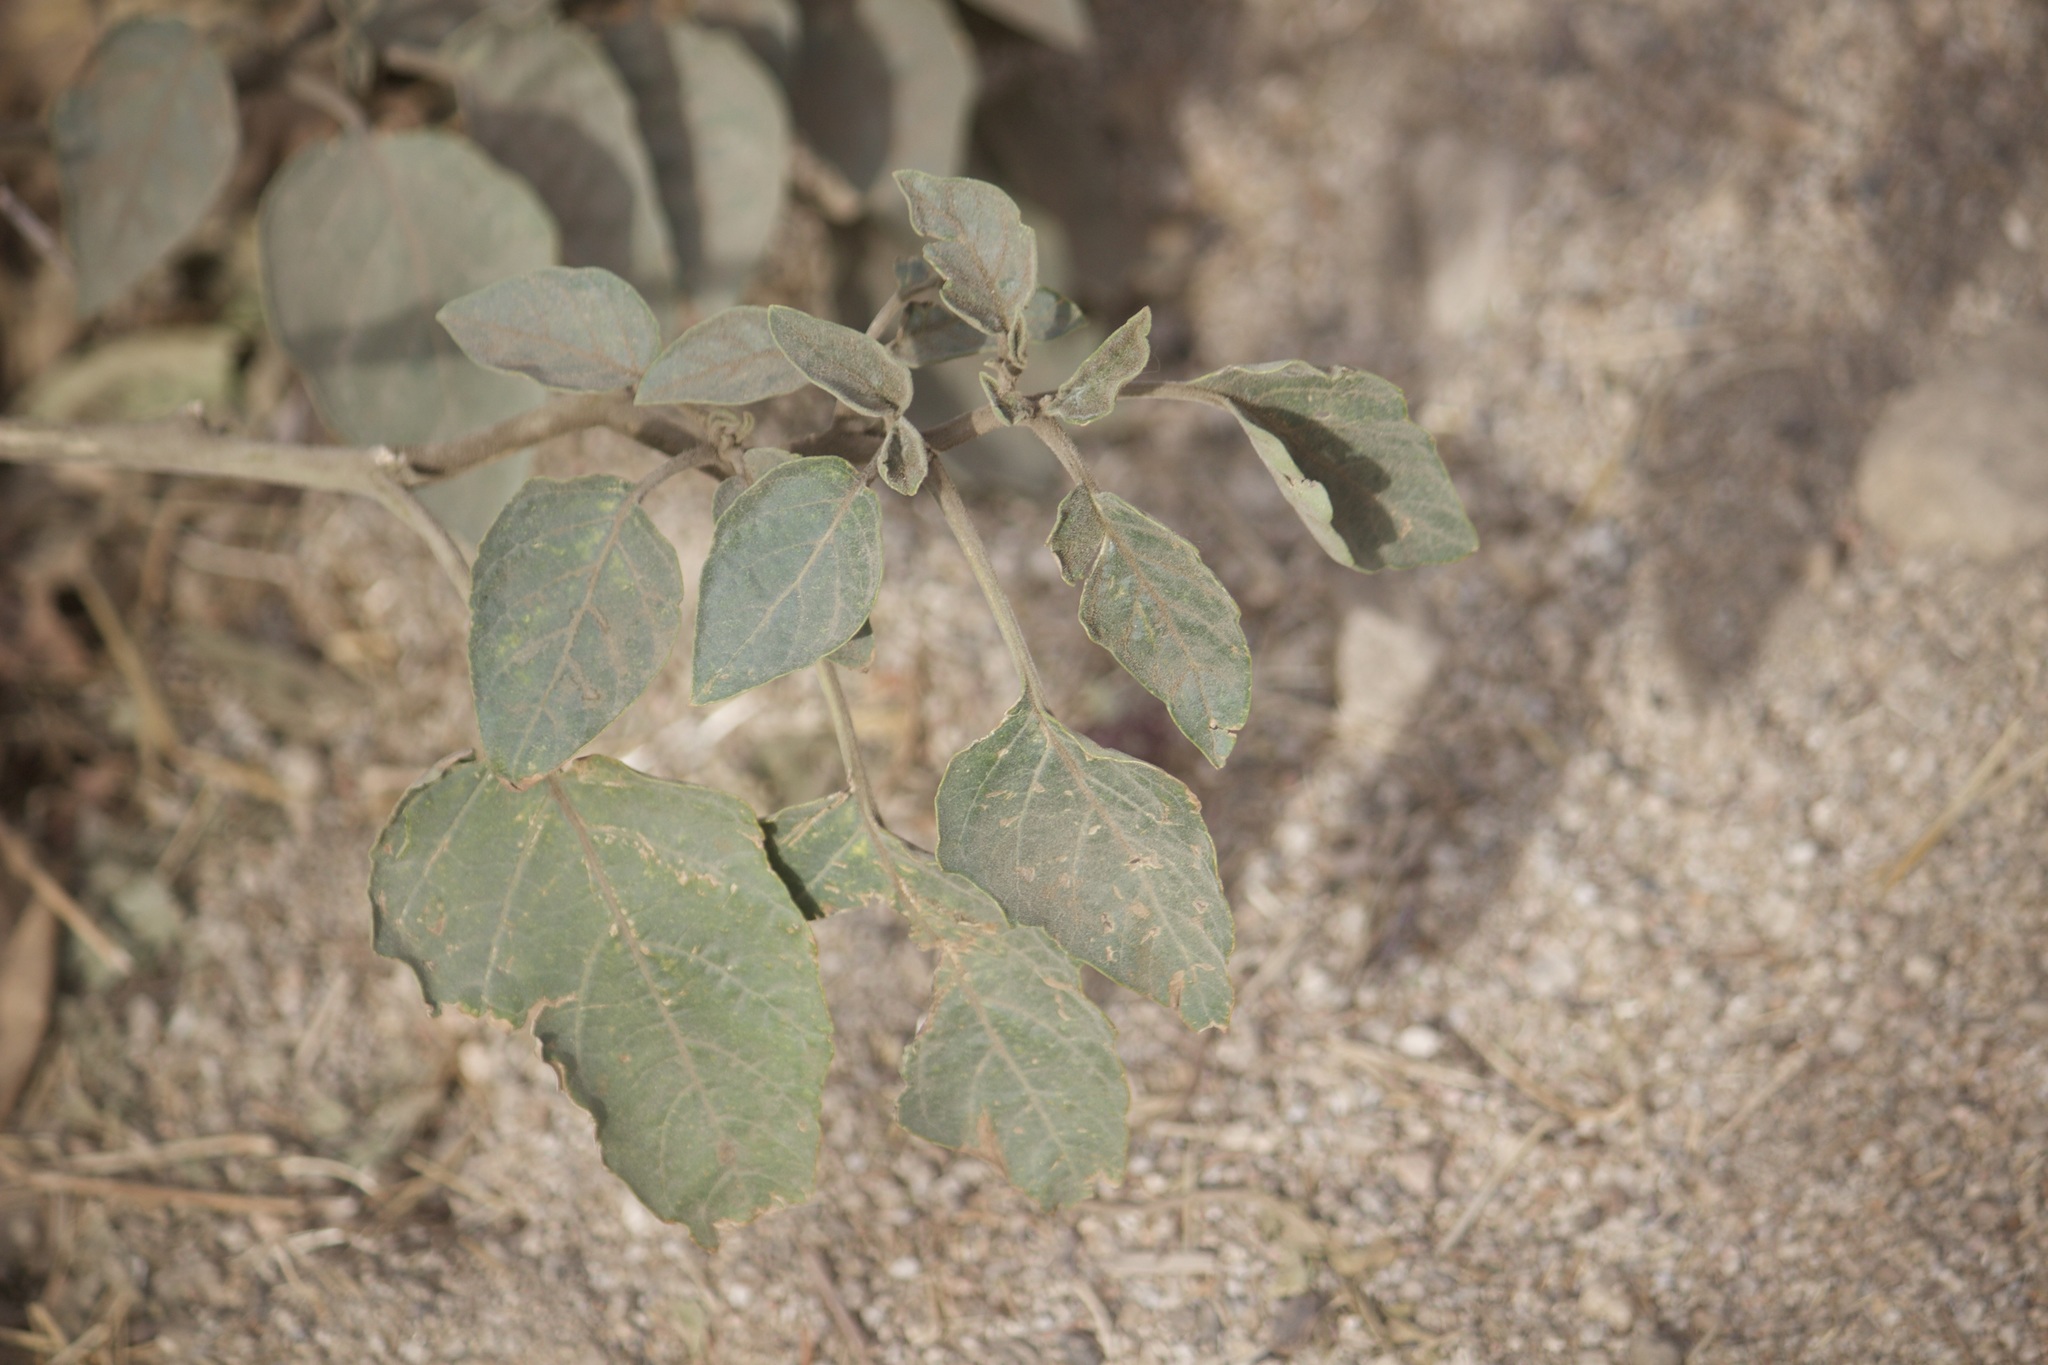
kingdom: Plantae
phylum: Tracheophyta
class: Magnoliopsida
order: Solanales
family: Solanaceae
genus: Datura
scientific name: Datura wrightii
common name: Sacred thorn-apple
